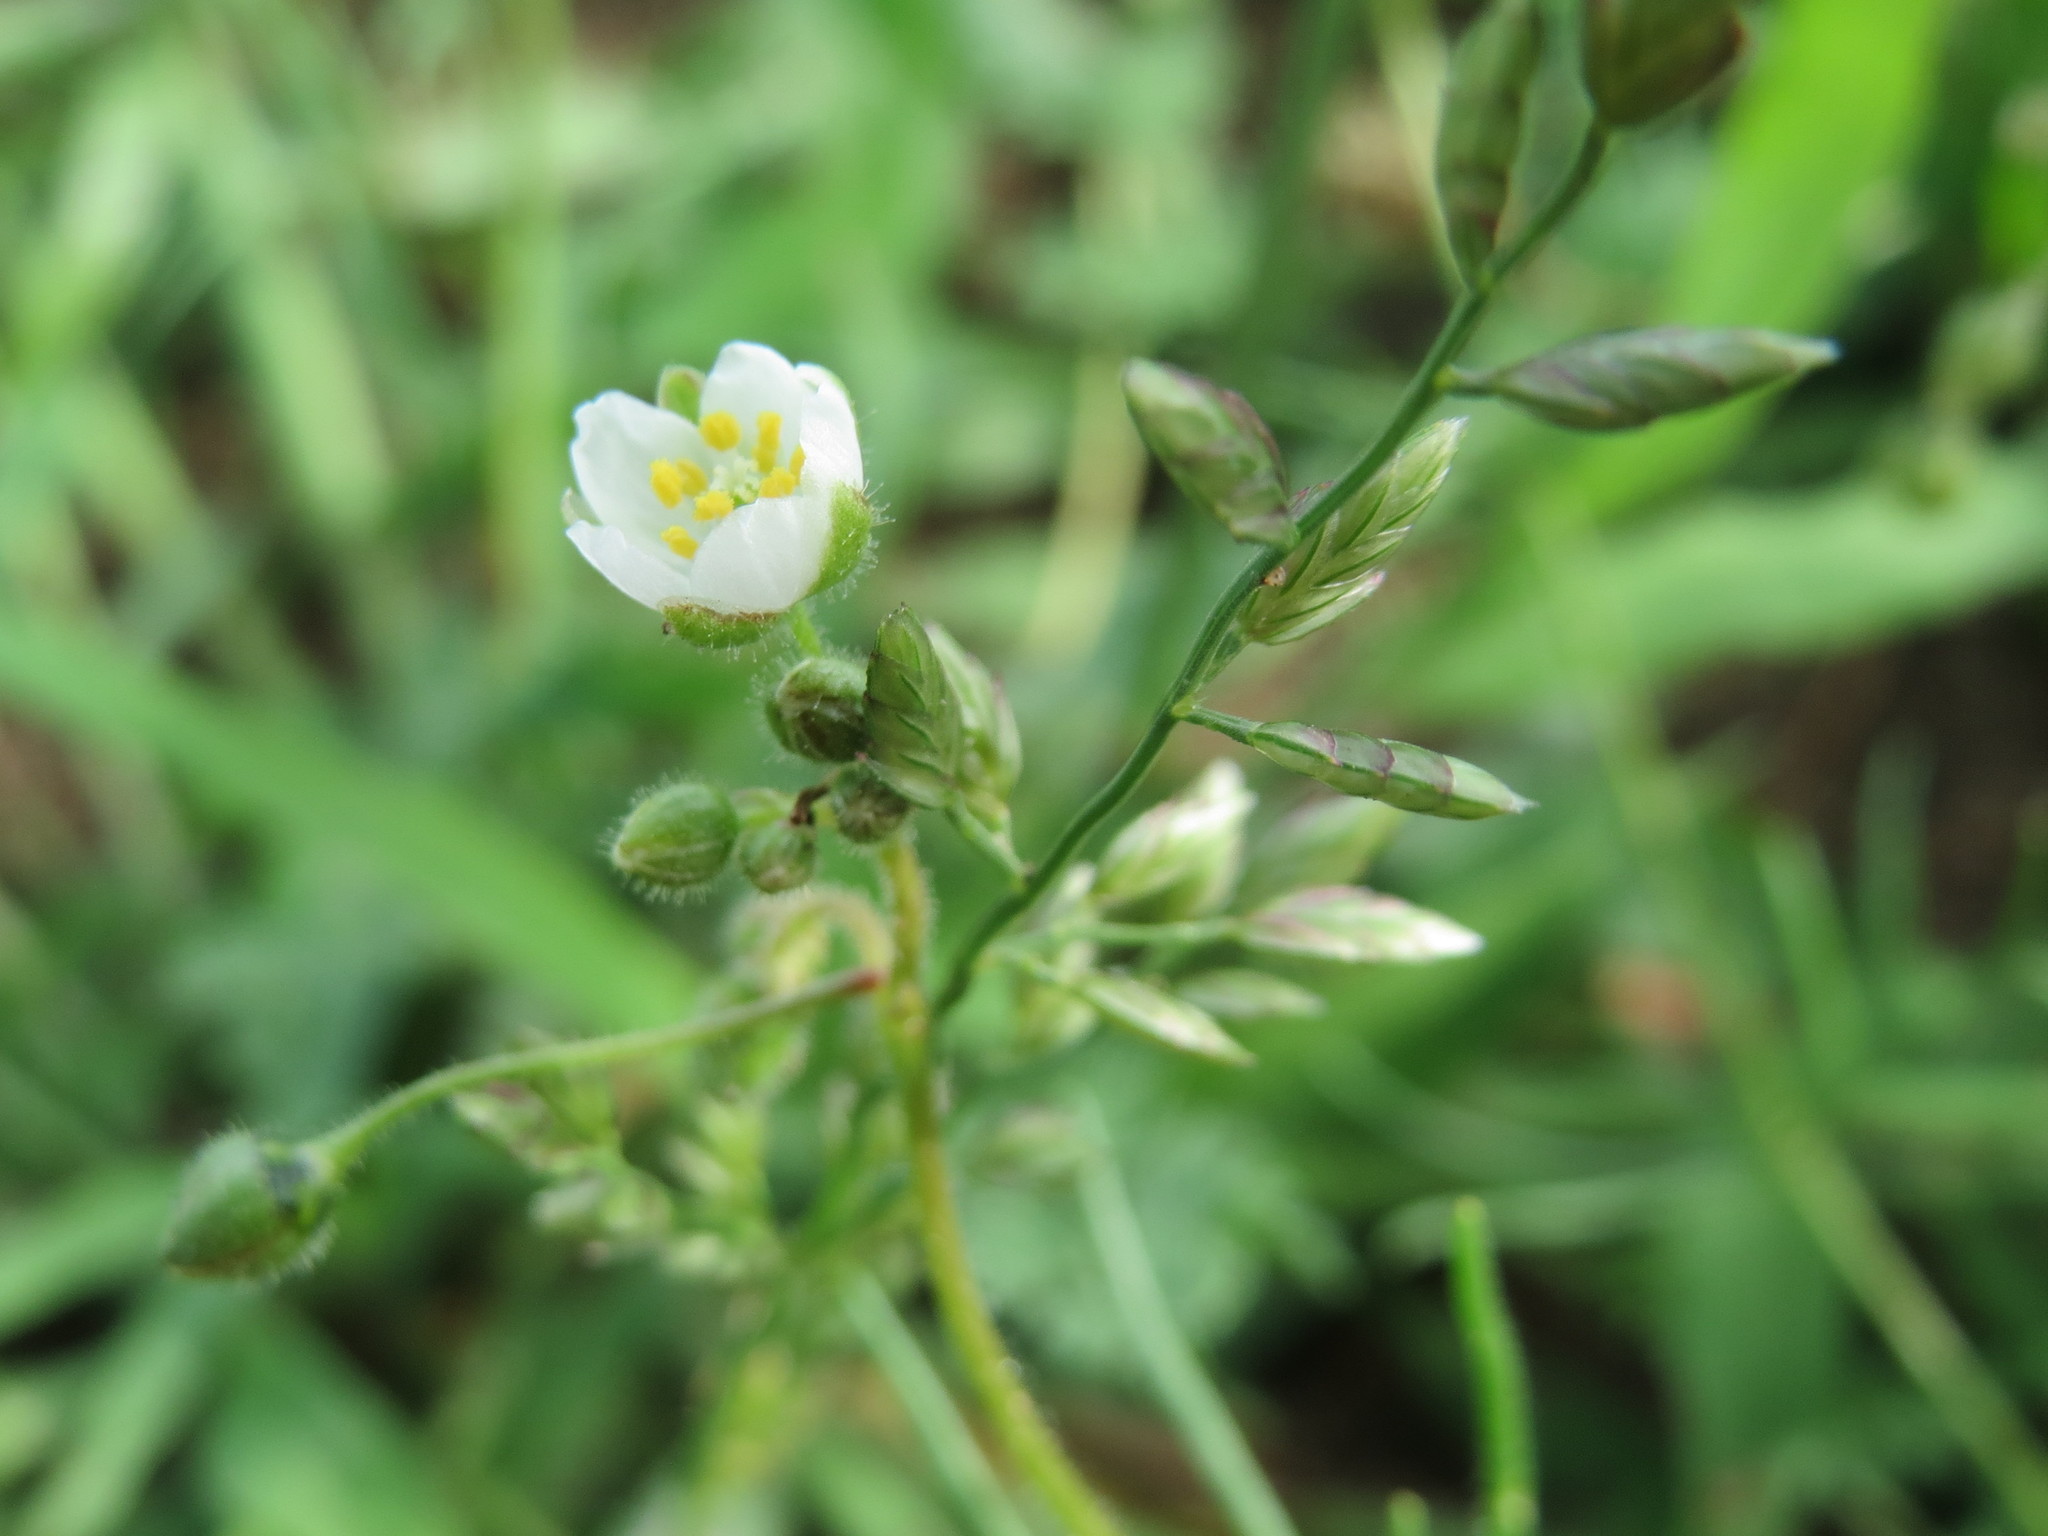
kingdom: Plantae
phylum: Tracheophyta
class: Magnoliopsida
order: Caryophyllales
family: Caryophyllaceae
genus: Spergula
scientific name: Spergula arvensis
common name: Corn spurrey
